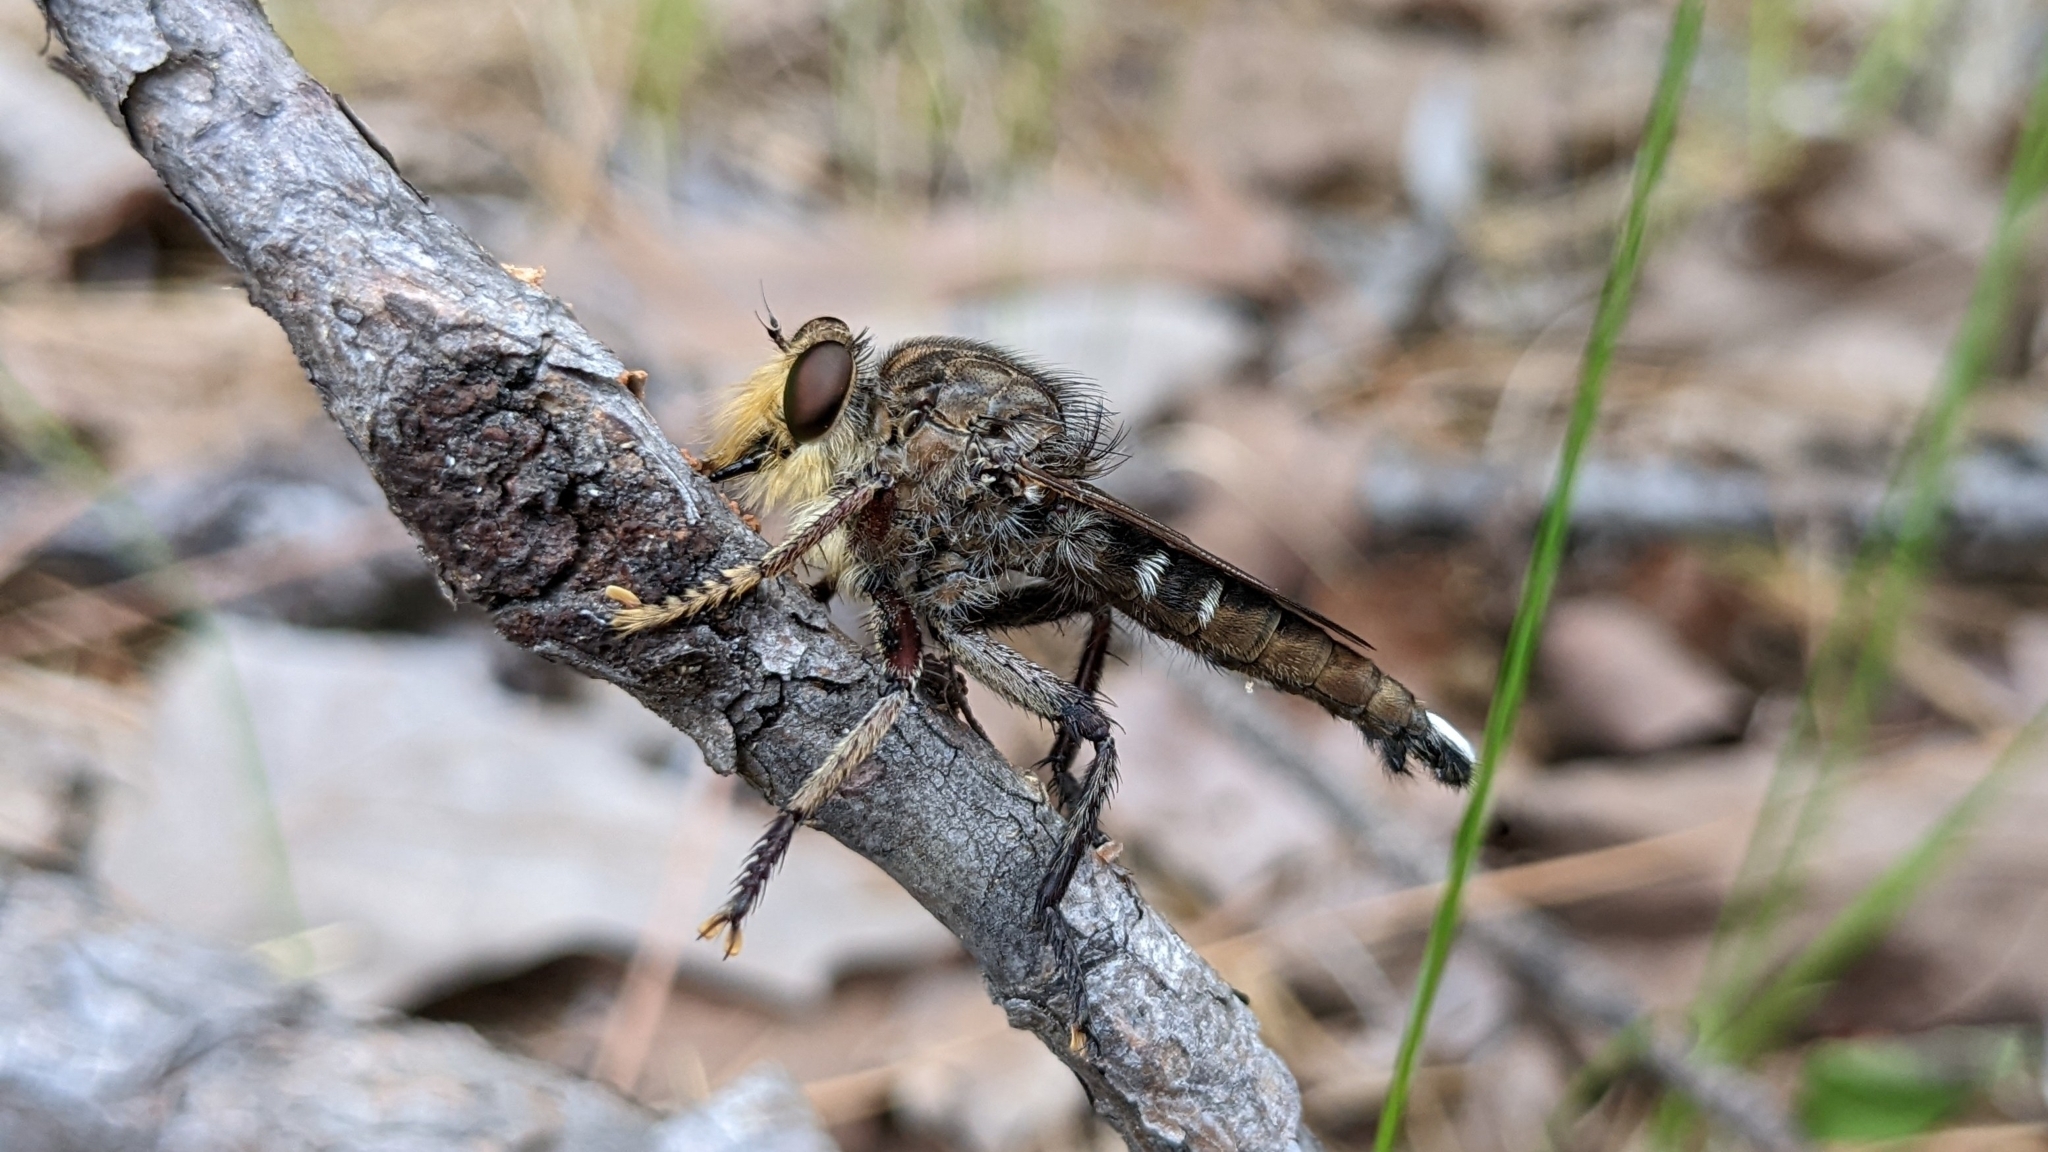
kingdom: Animalia
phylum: Arthropoda
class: Insecta
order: Diptera
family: Asilidae
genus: Promachus
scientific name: Promachus bastardii
